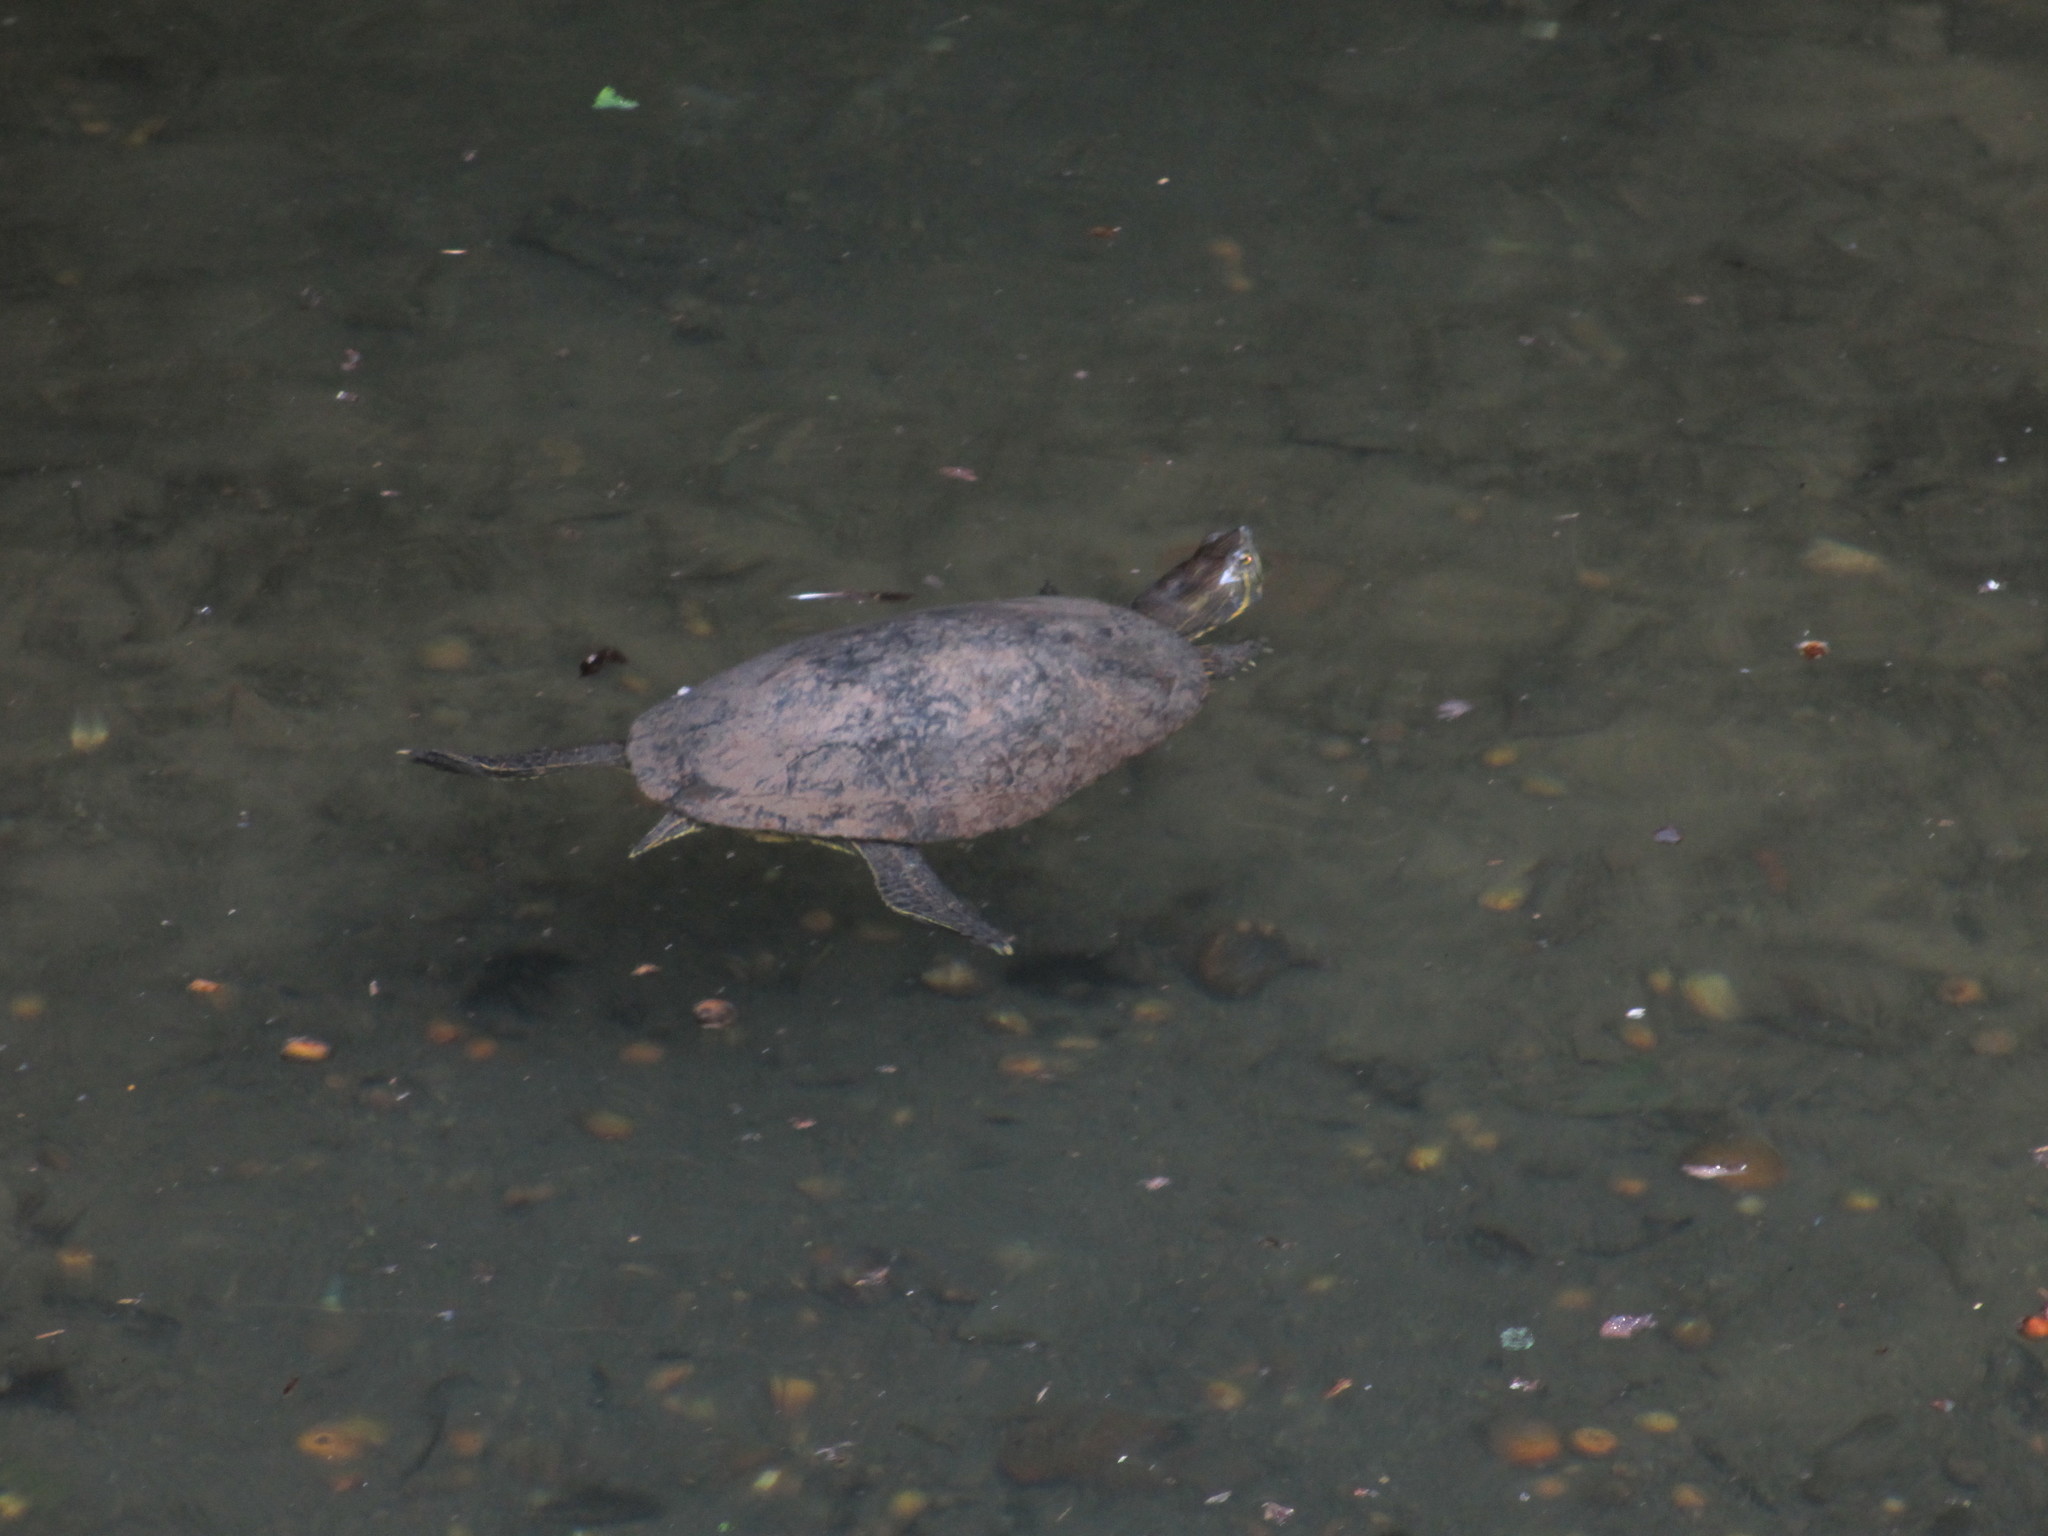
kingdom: Animalia
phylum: Chordata
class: Testudines
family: Emydidae
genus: Trachemys
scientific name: Trachemys venusta
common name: Mesoamerican slider
